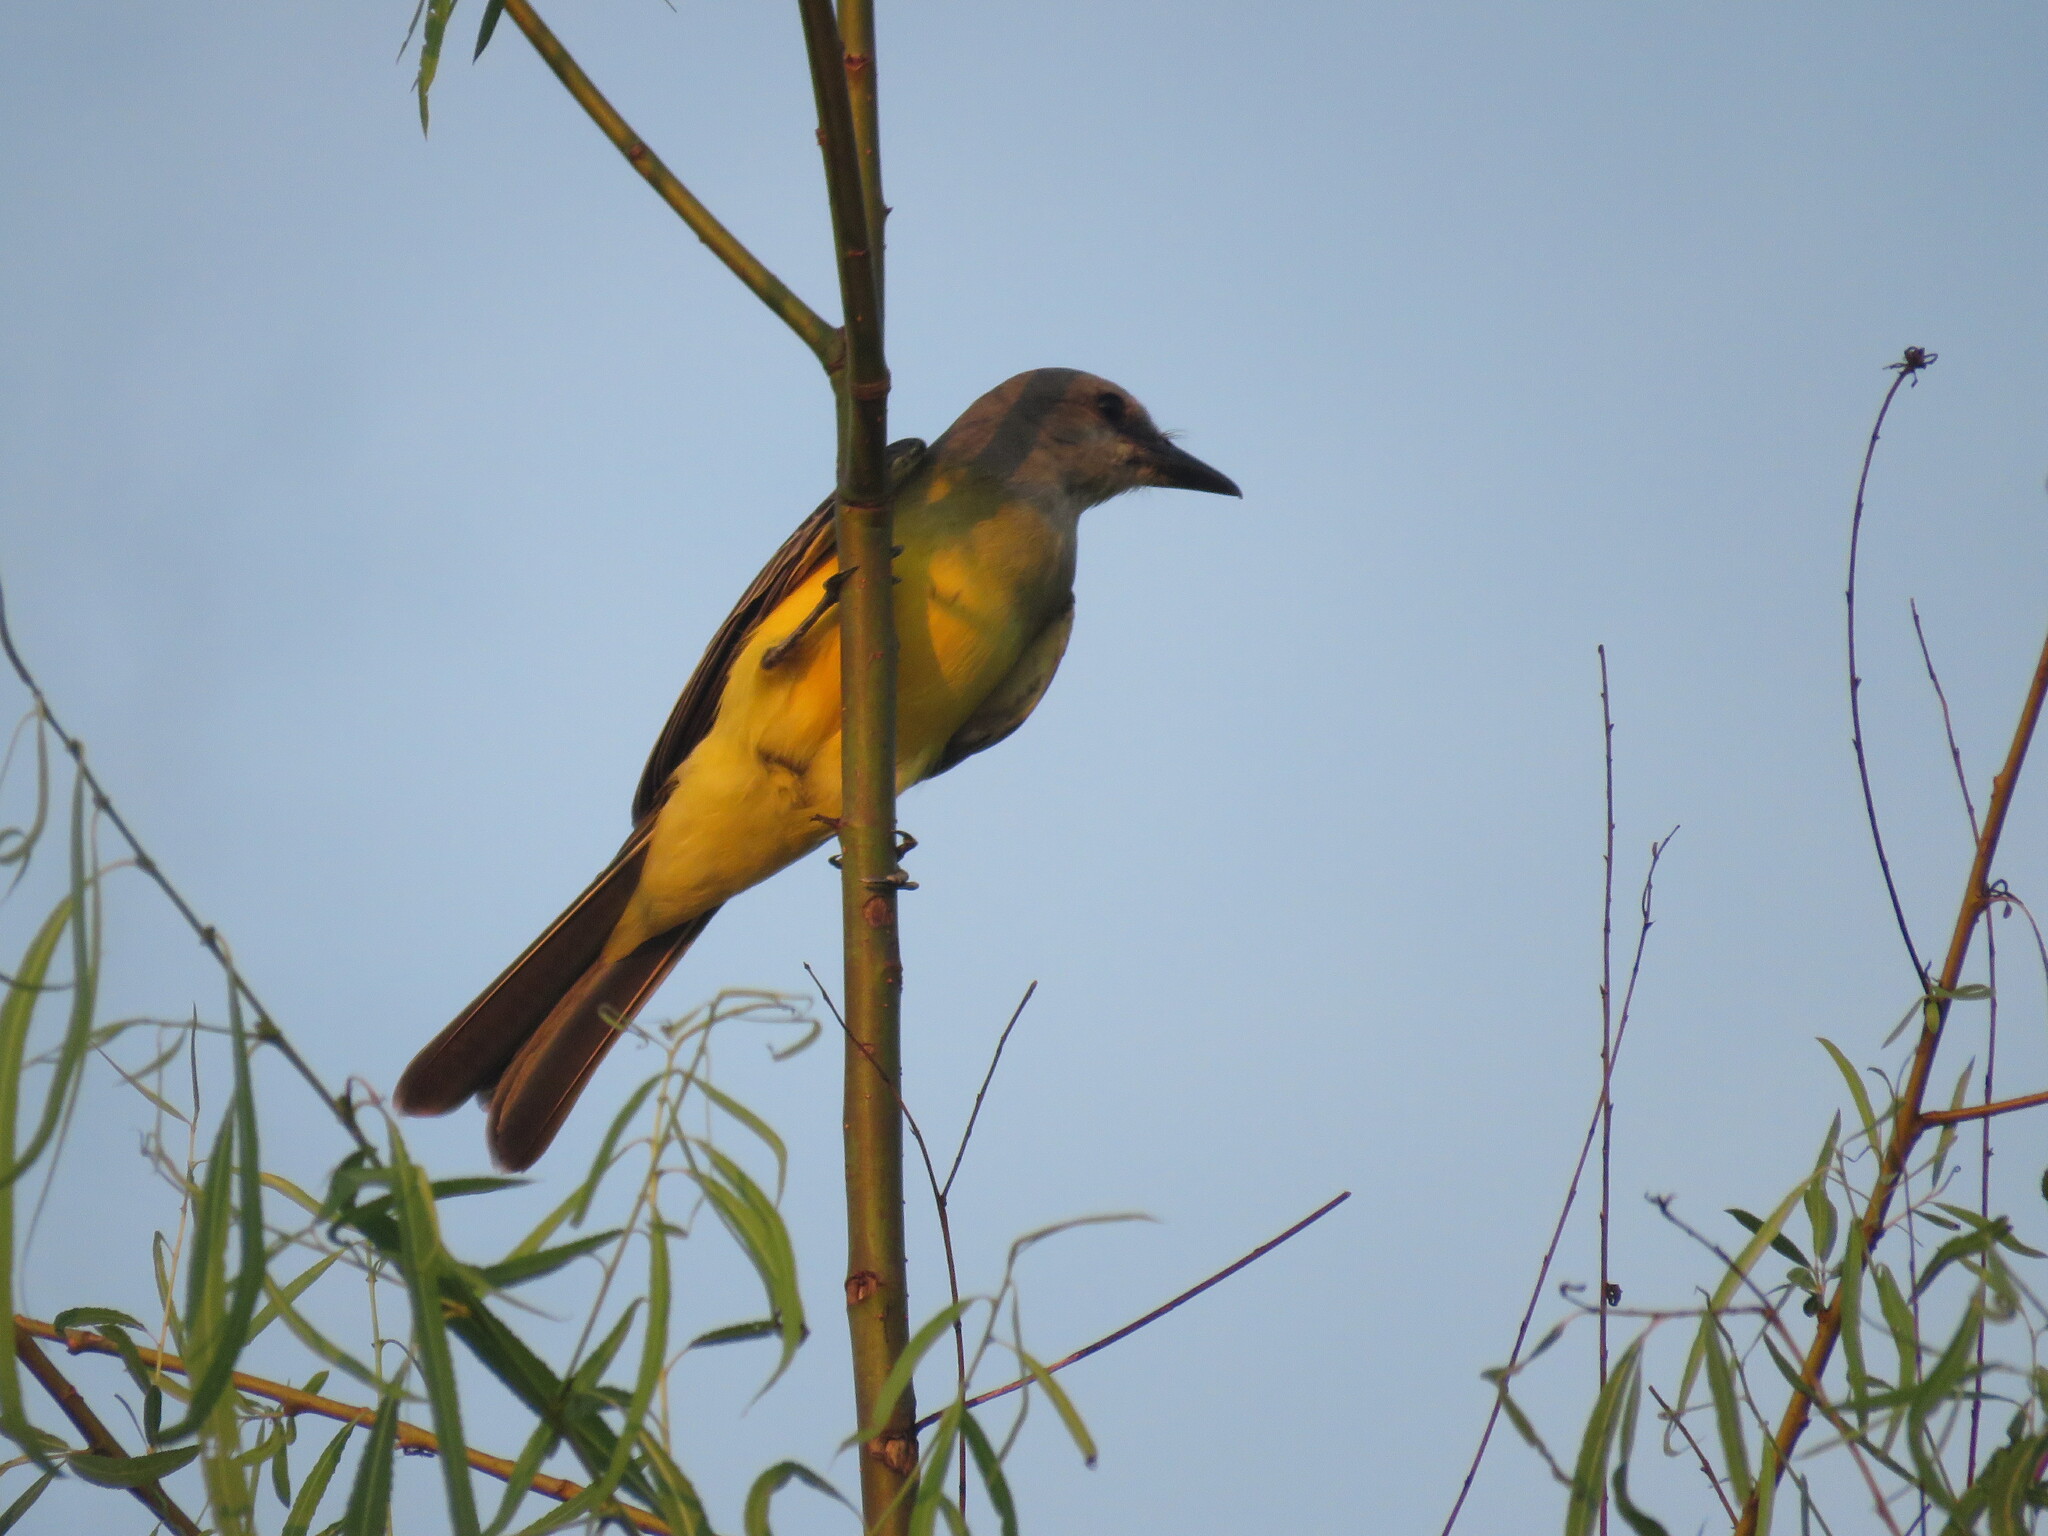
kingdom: Animalia
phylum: Chordata
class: Aves
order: Passeriformes
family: Tyrannidae
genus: Tyrannus
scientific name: Tyrannus melancholicus
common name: Tropical kingbird
